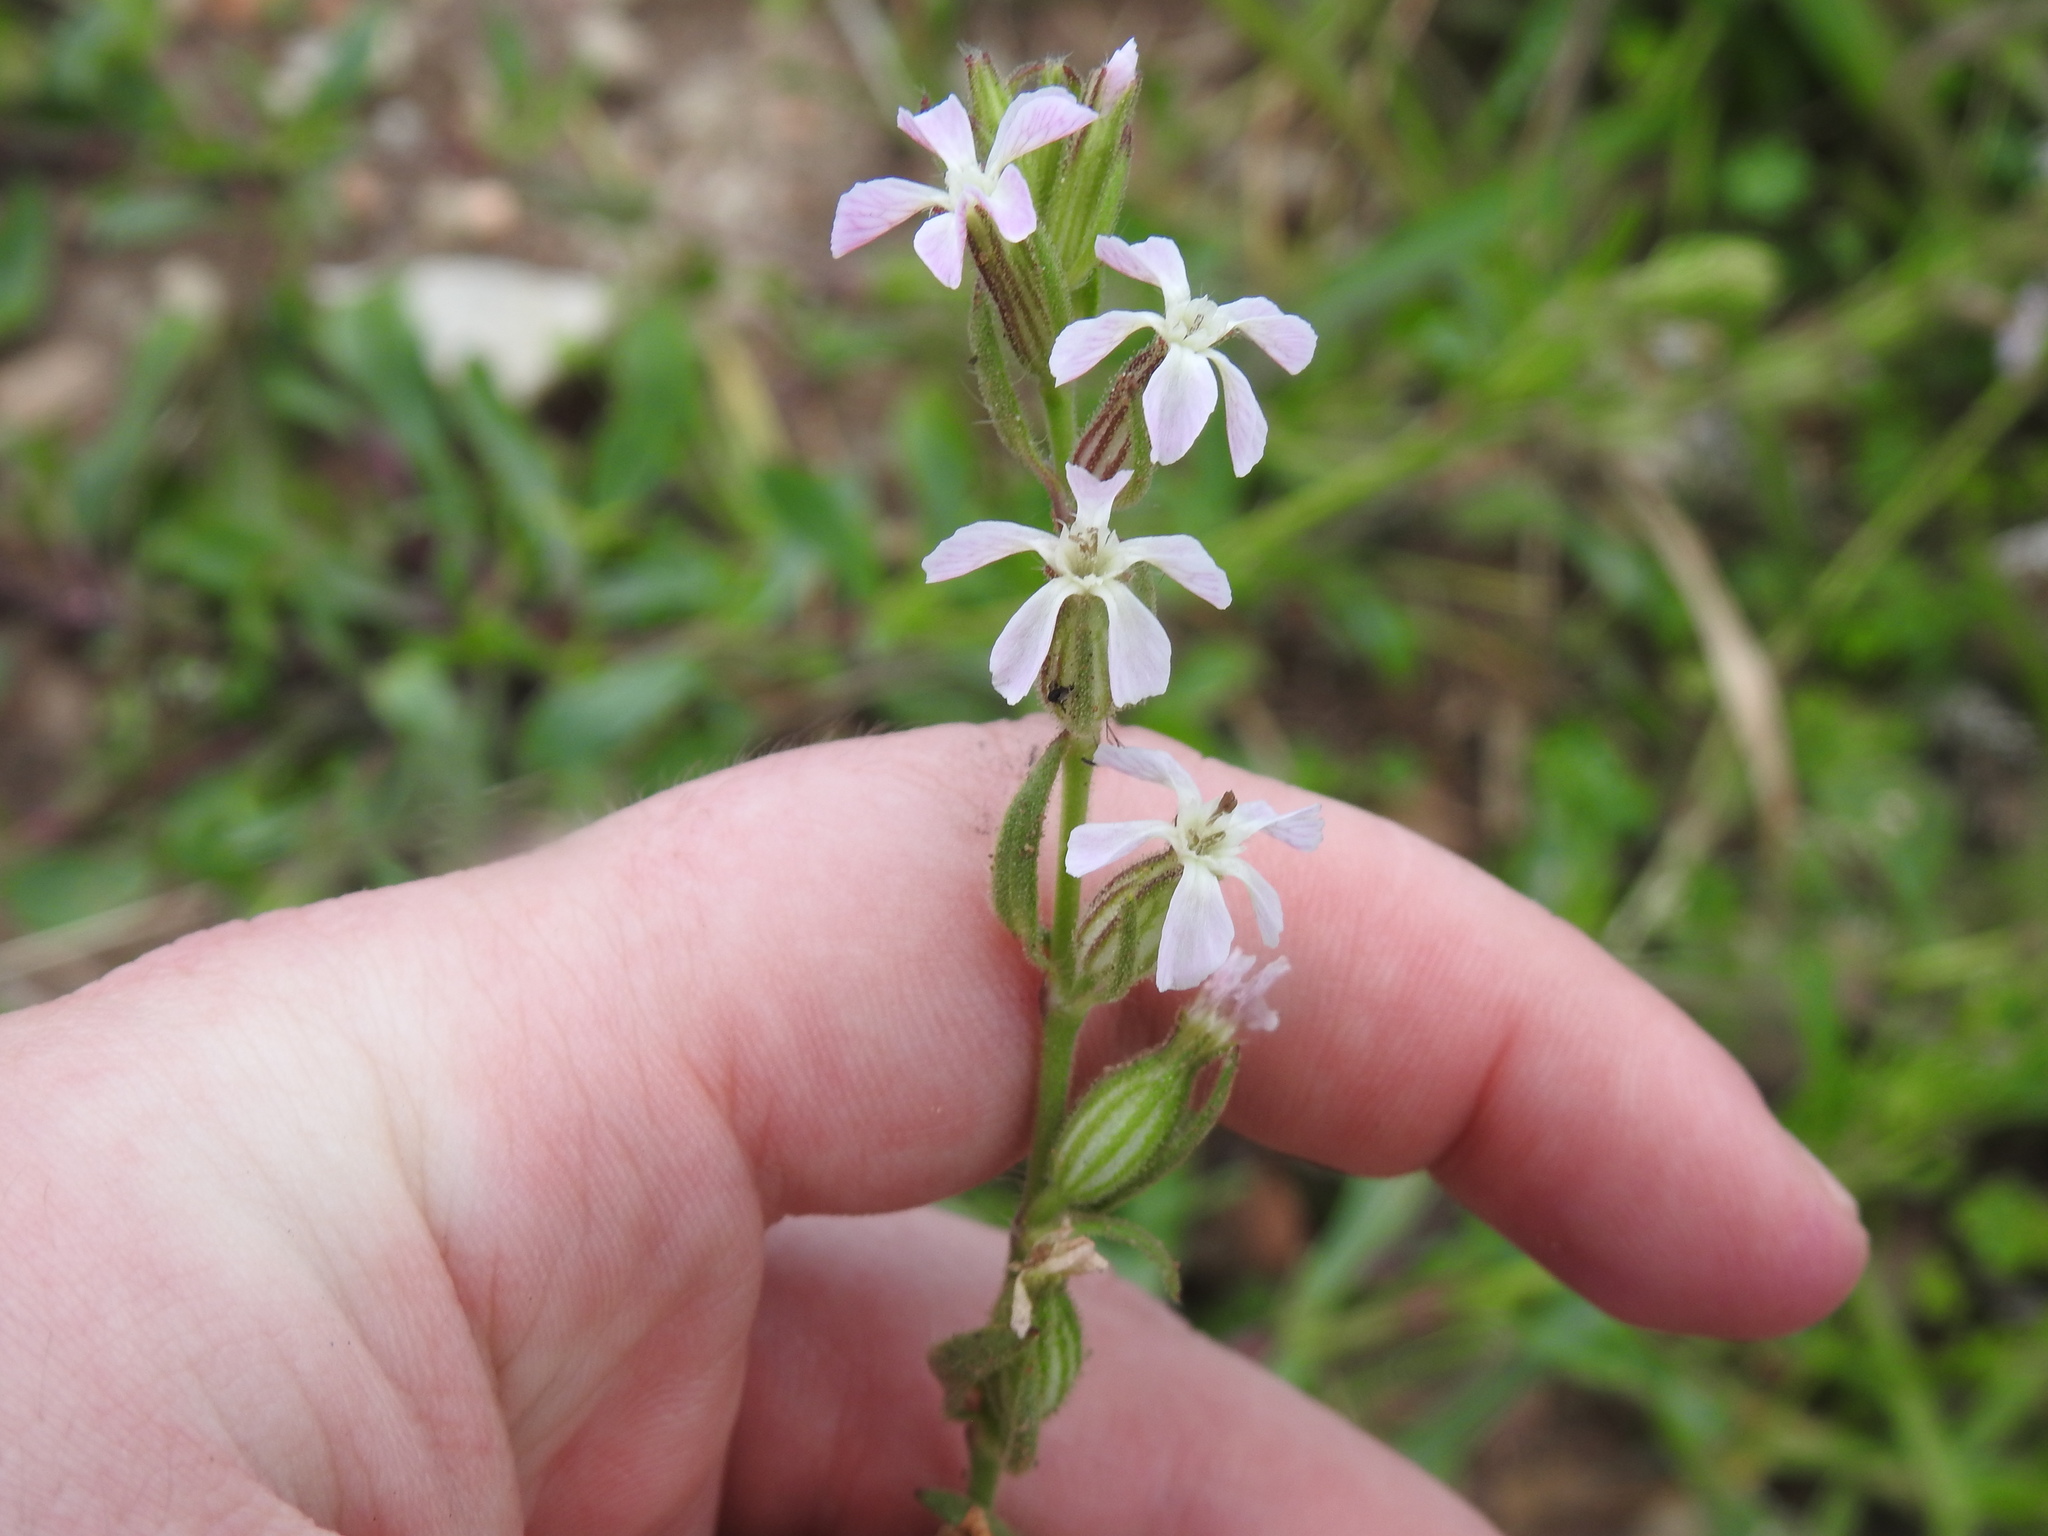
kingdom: Plantae
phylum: Tracheophyta
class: Magnoliopsida
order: Caryophyllales
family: Caryophyllaceae
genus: Silene
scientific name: Silene gallica
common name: Small-flowered catchfly
